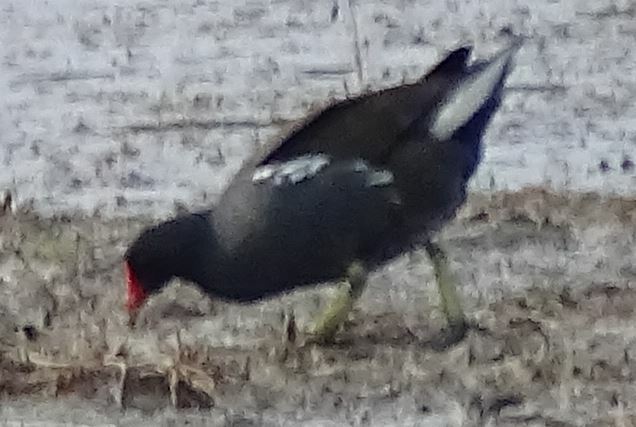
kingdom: Animalia
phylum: Chordata
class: Aves
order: Gruiformes
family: Rallidae
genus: Gallinula
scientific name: Gallinula chloropus
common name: Common moorhen
